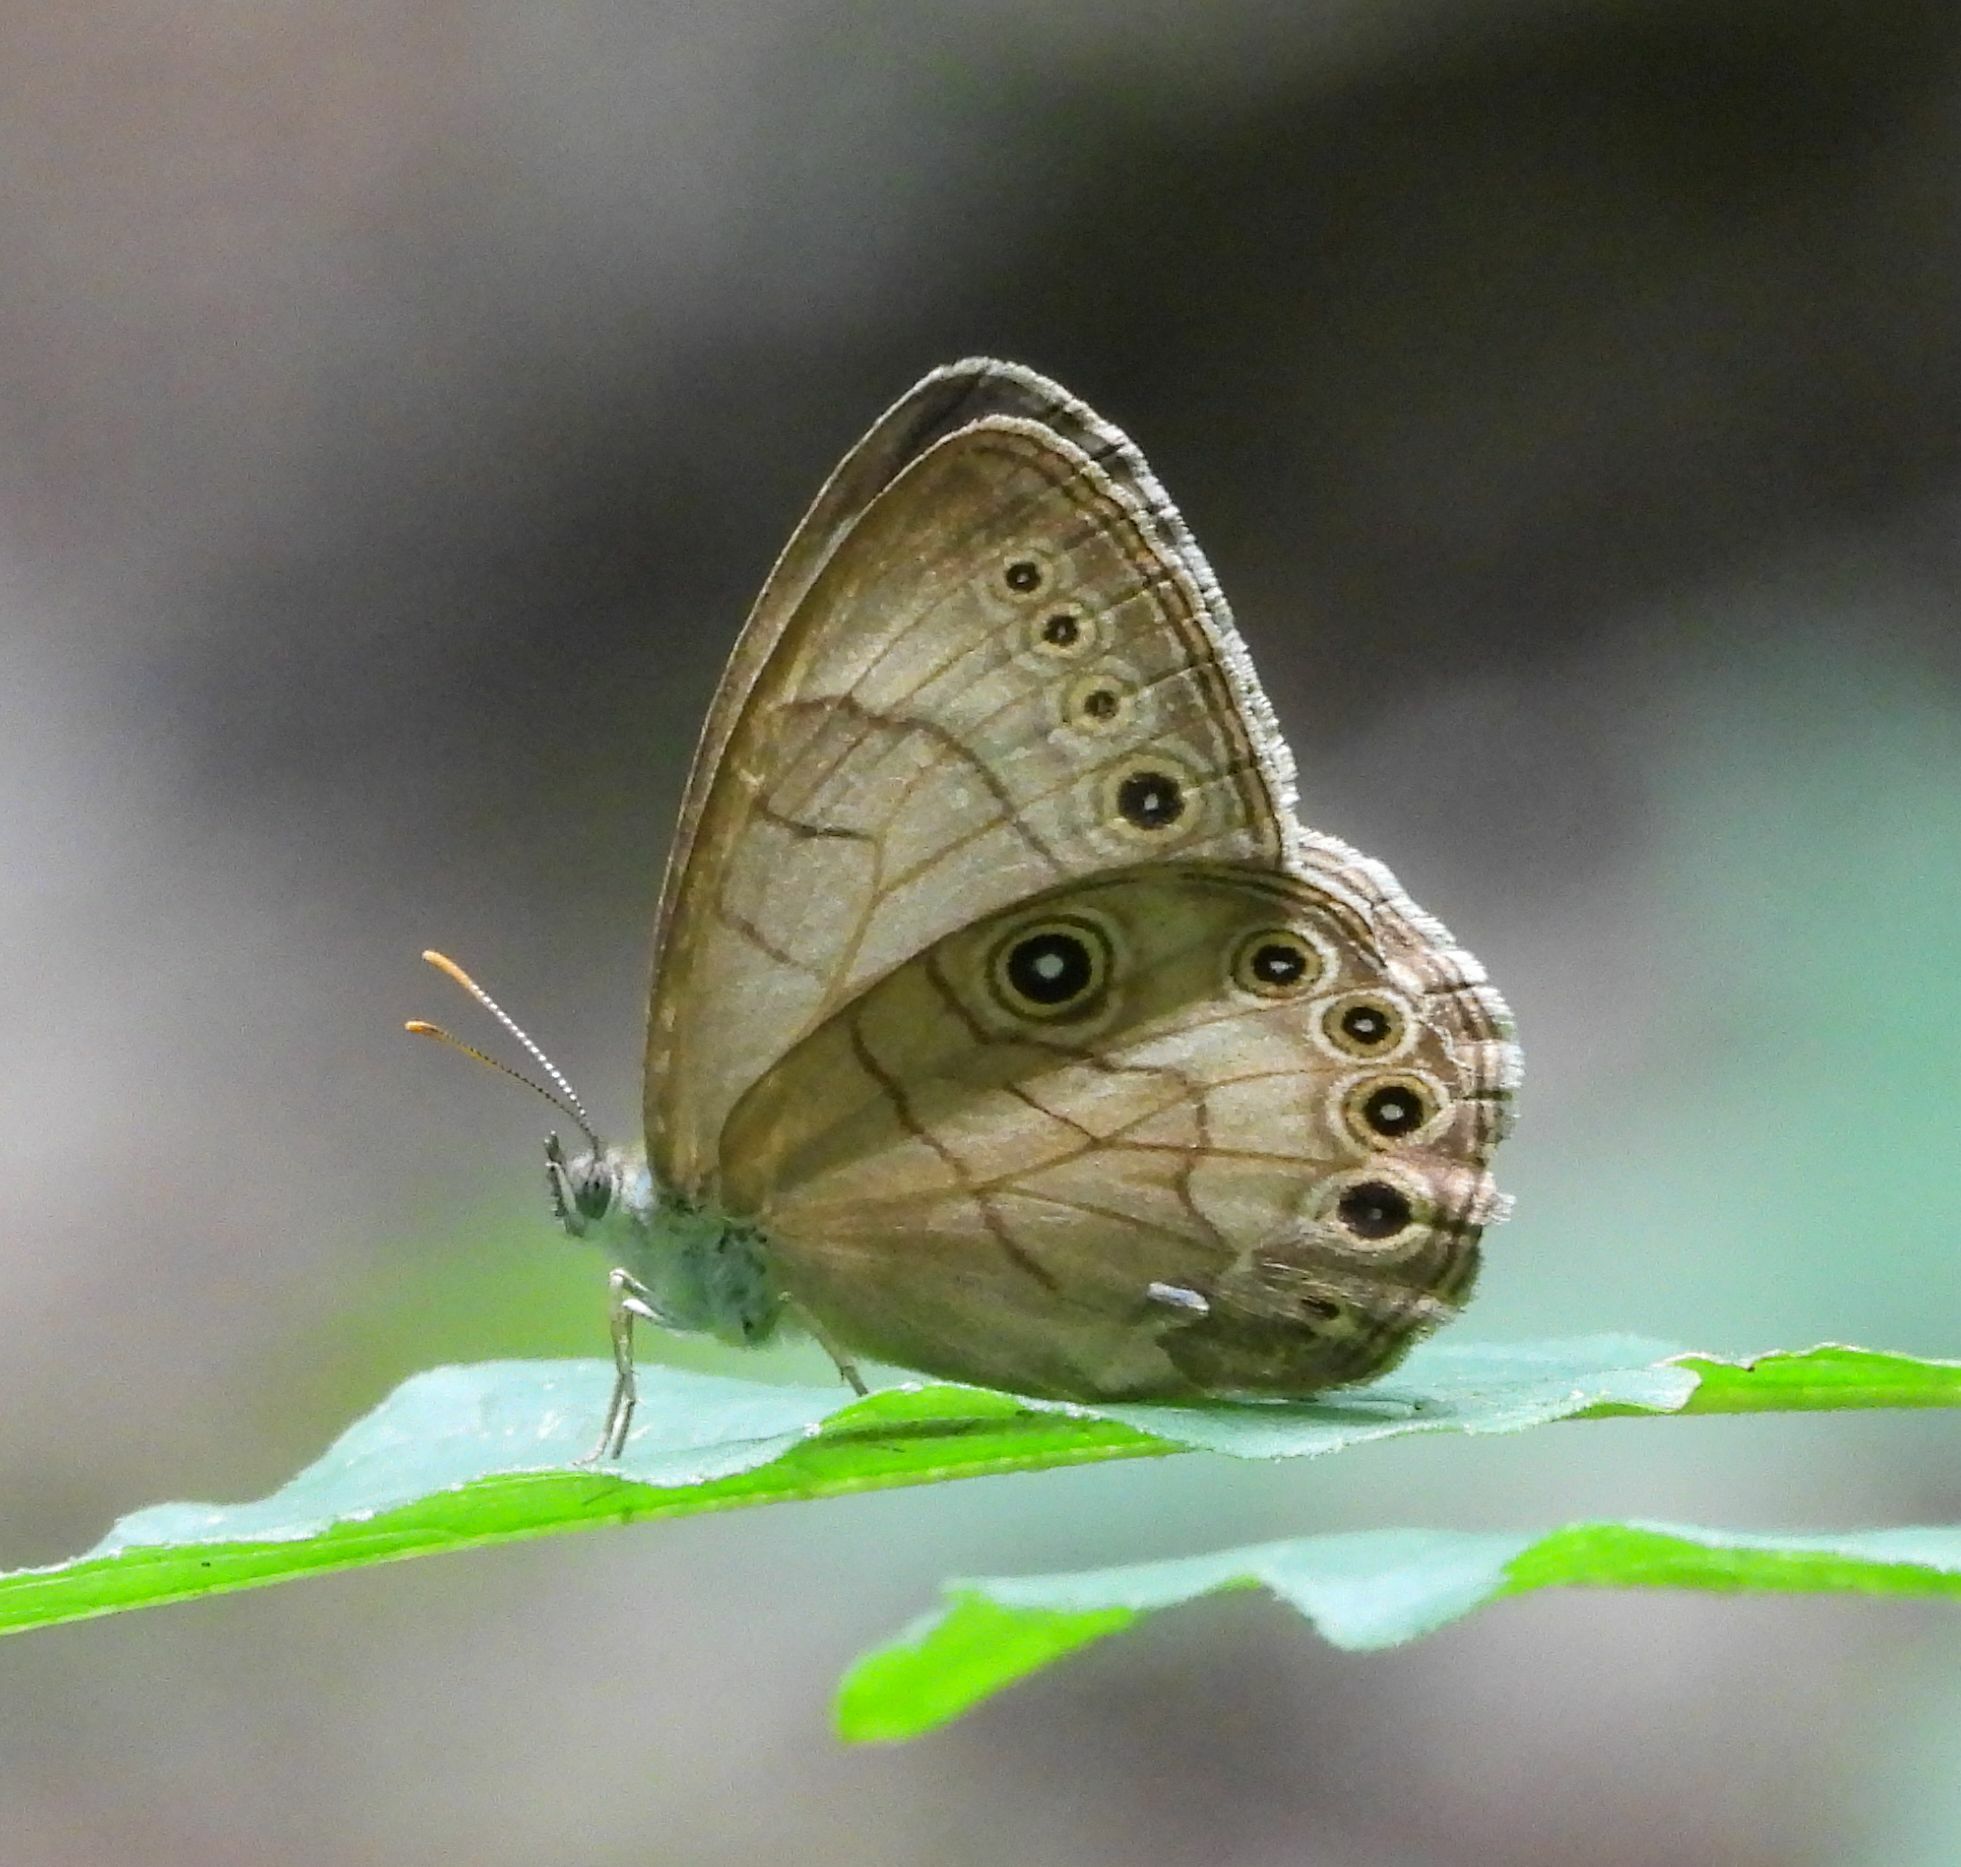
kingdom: Animalia
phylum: Arthropoda
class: Insecta
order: Lepidoptera
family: Nymphalidae
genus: Lethe
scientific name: Lethe eurydice
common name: Eyed brown
